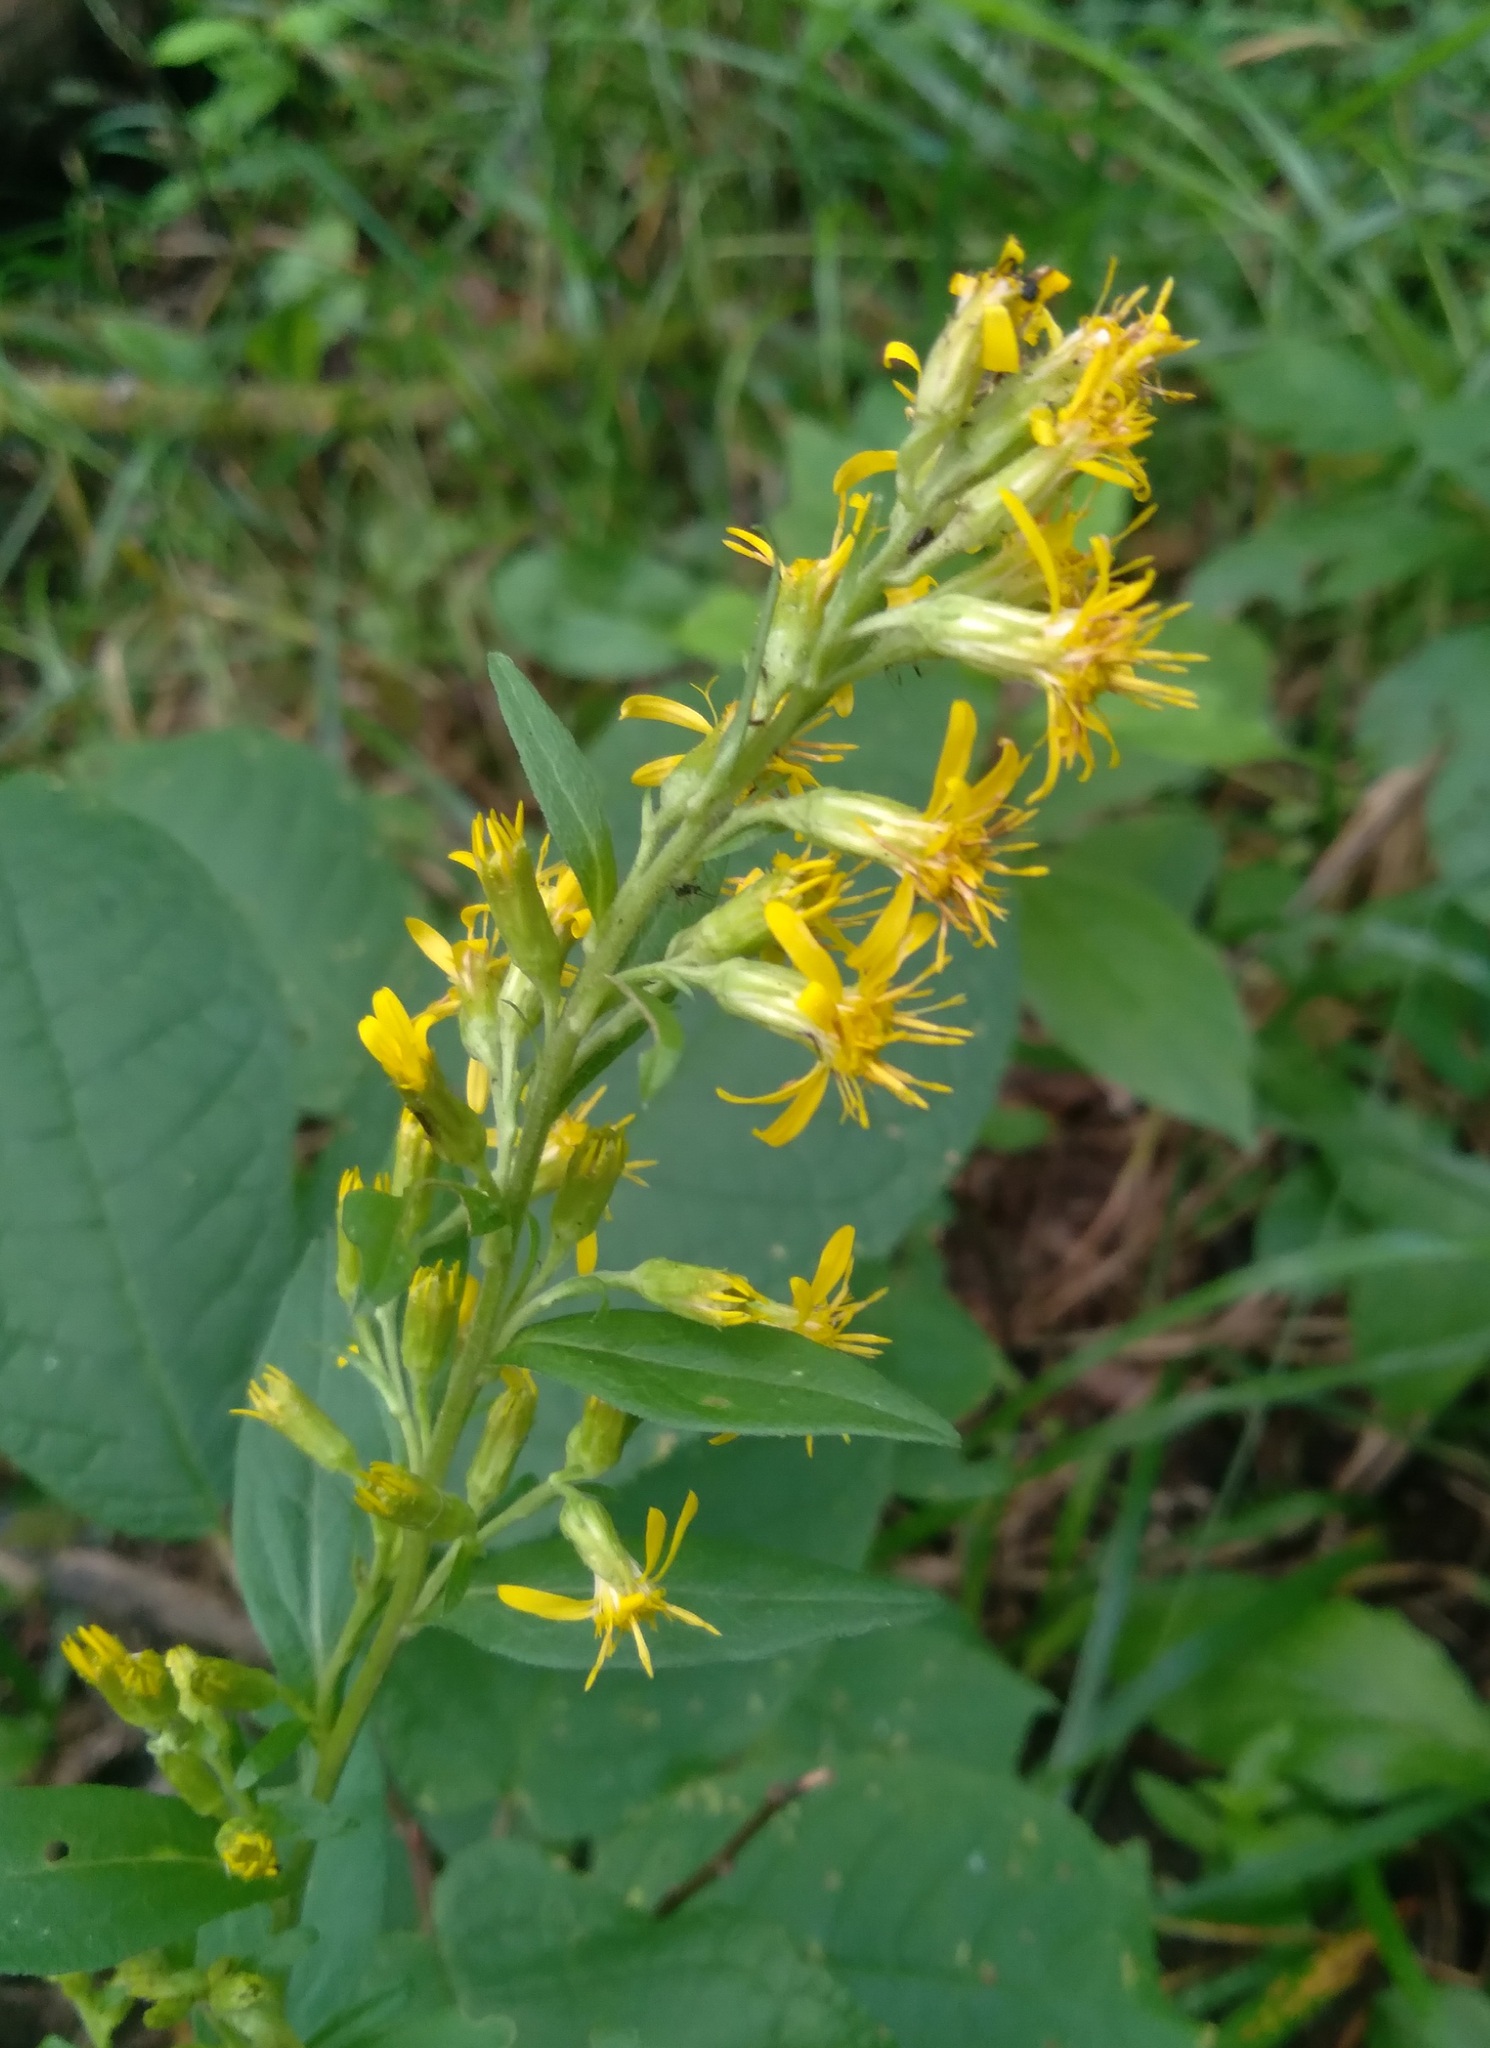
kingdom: Plantae
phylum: Tracheophyta
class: Magnoliopsida
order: Asterales
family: Asteraceae
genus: Solidago
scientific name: Solidago virgaurea
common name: Goldenrod
